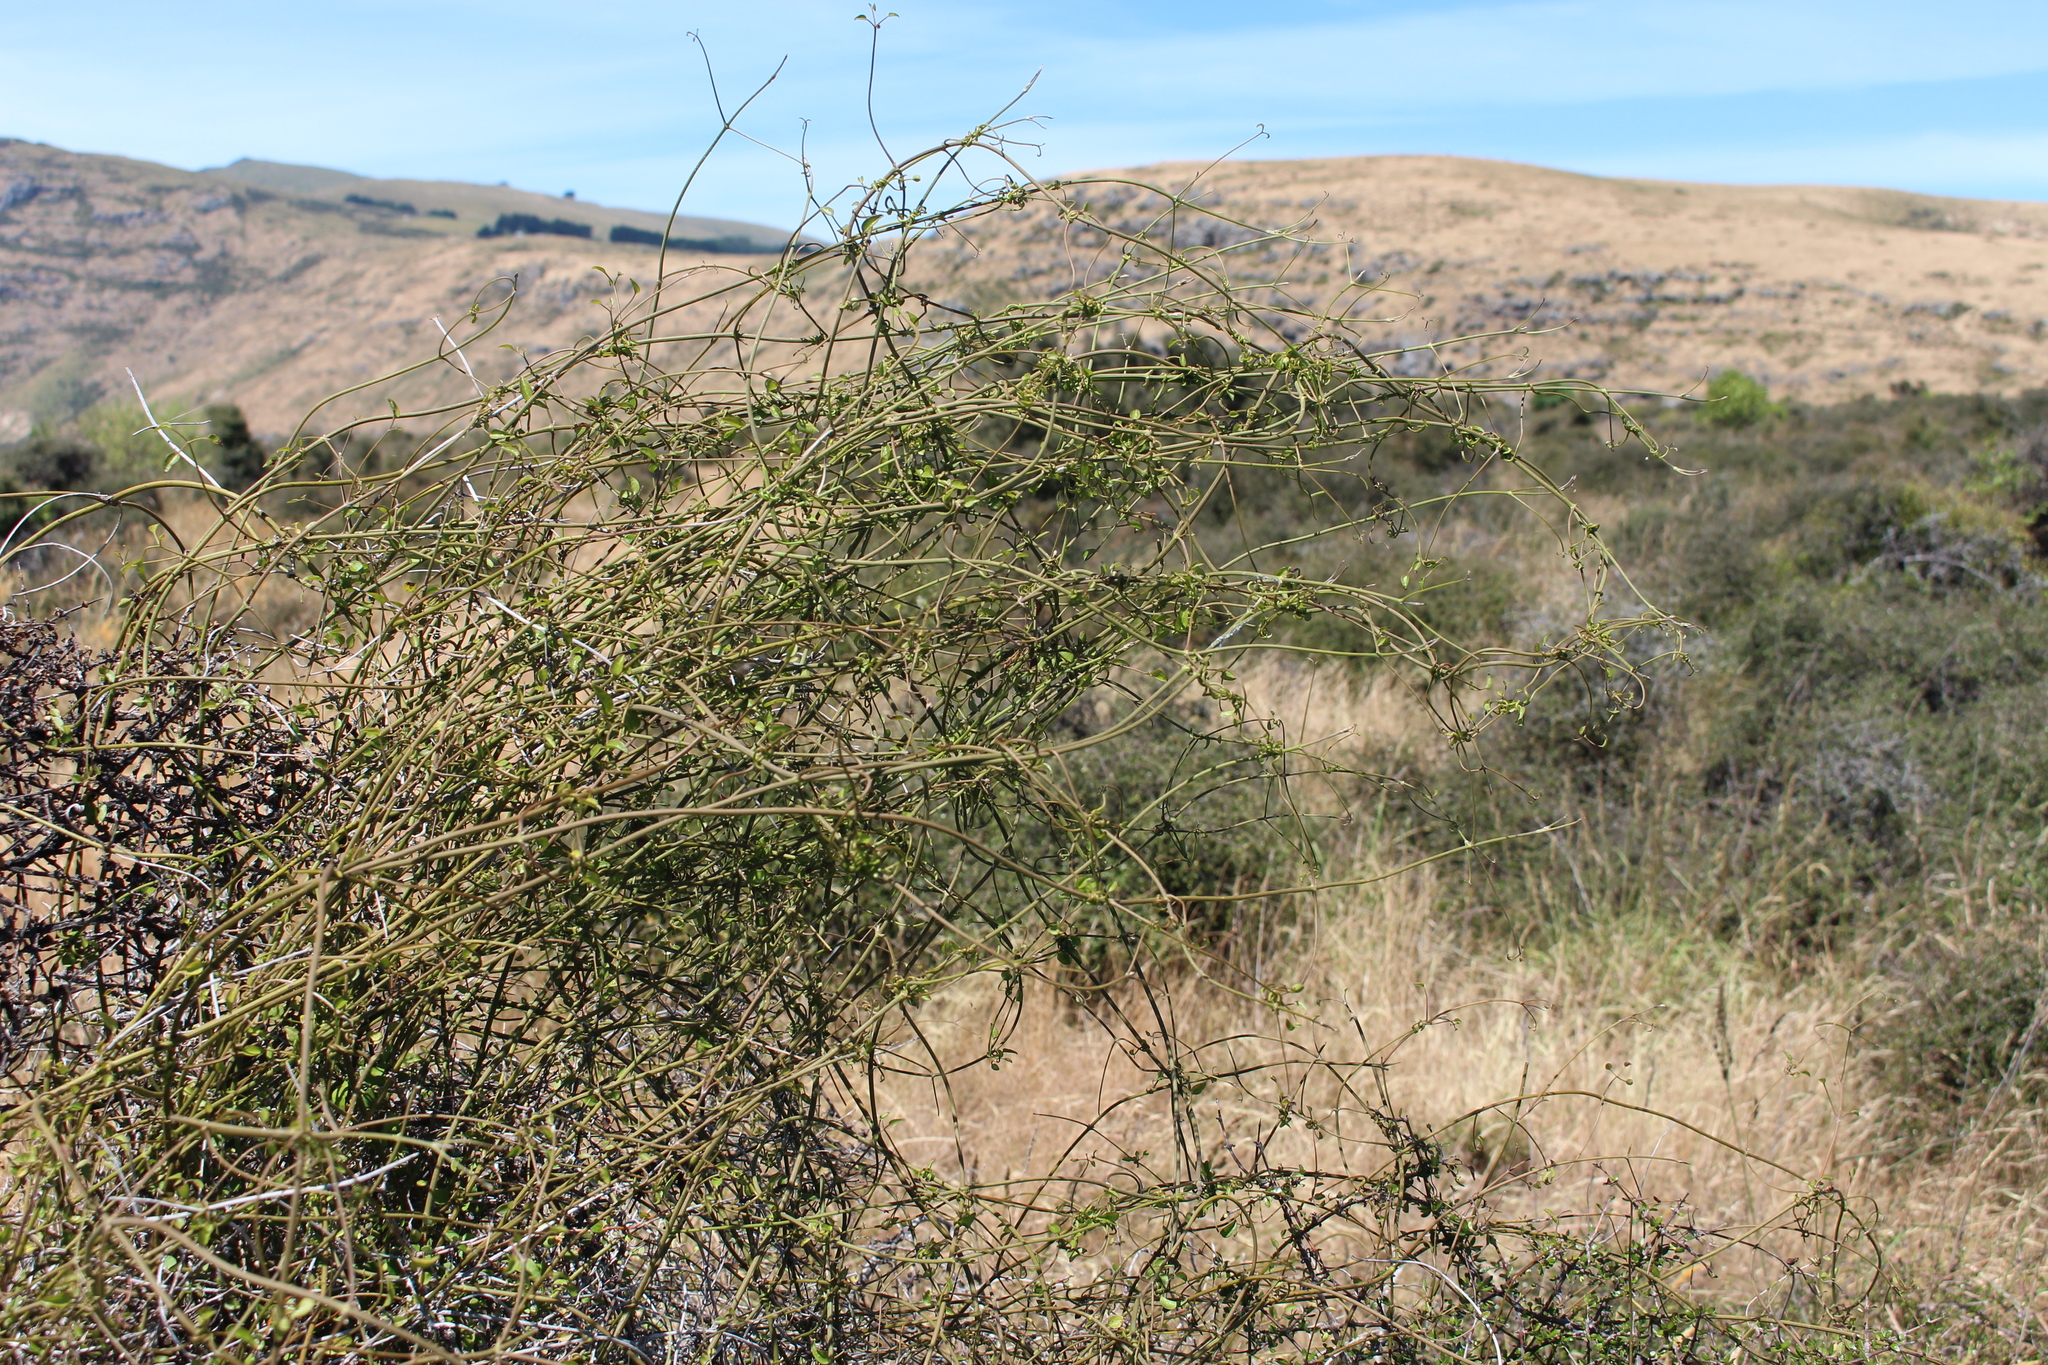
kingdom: Plantae
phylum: Tracheophyta
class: Magnoliopsida
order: Ranunculales
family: Ranunculaceae
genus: Clematis
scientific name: Clematis afoliata
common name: Rush-stem clematis
